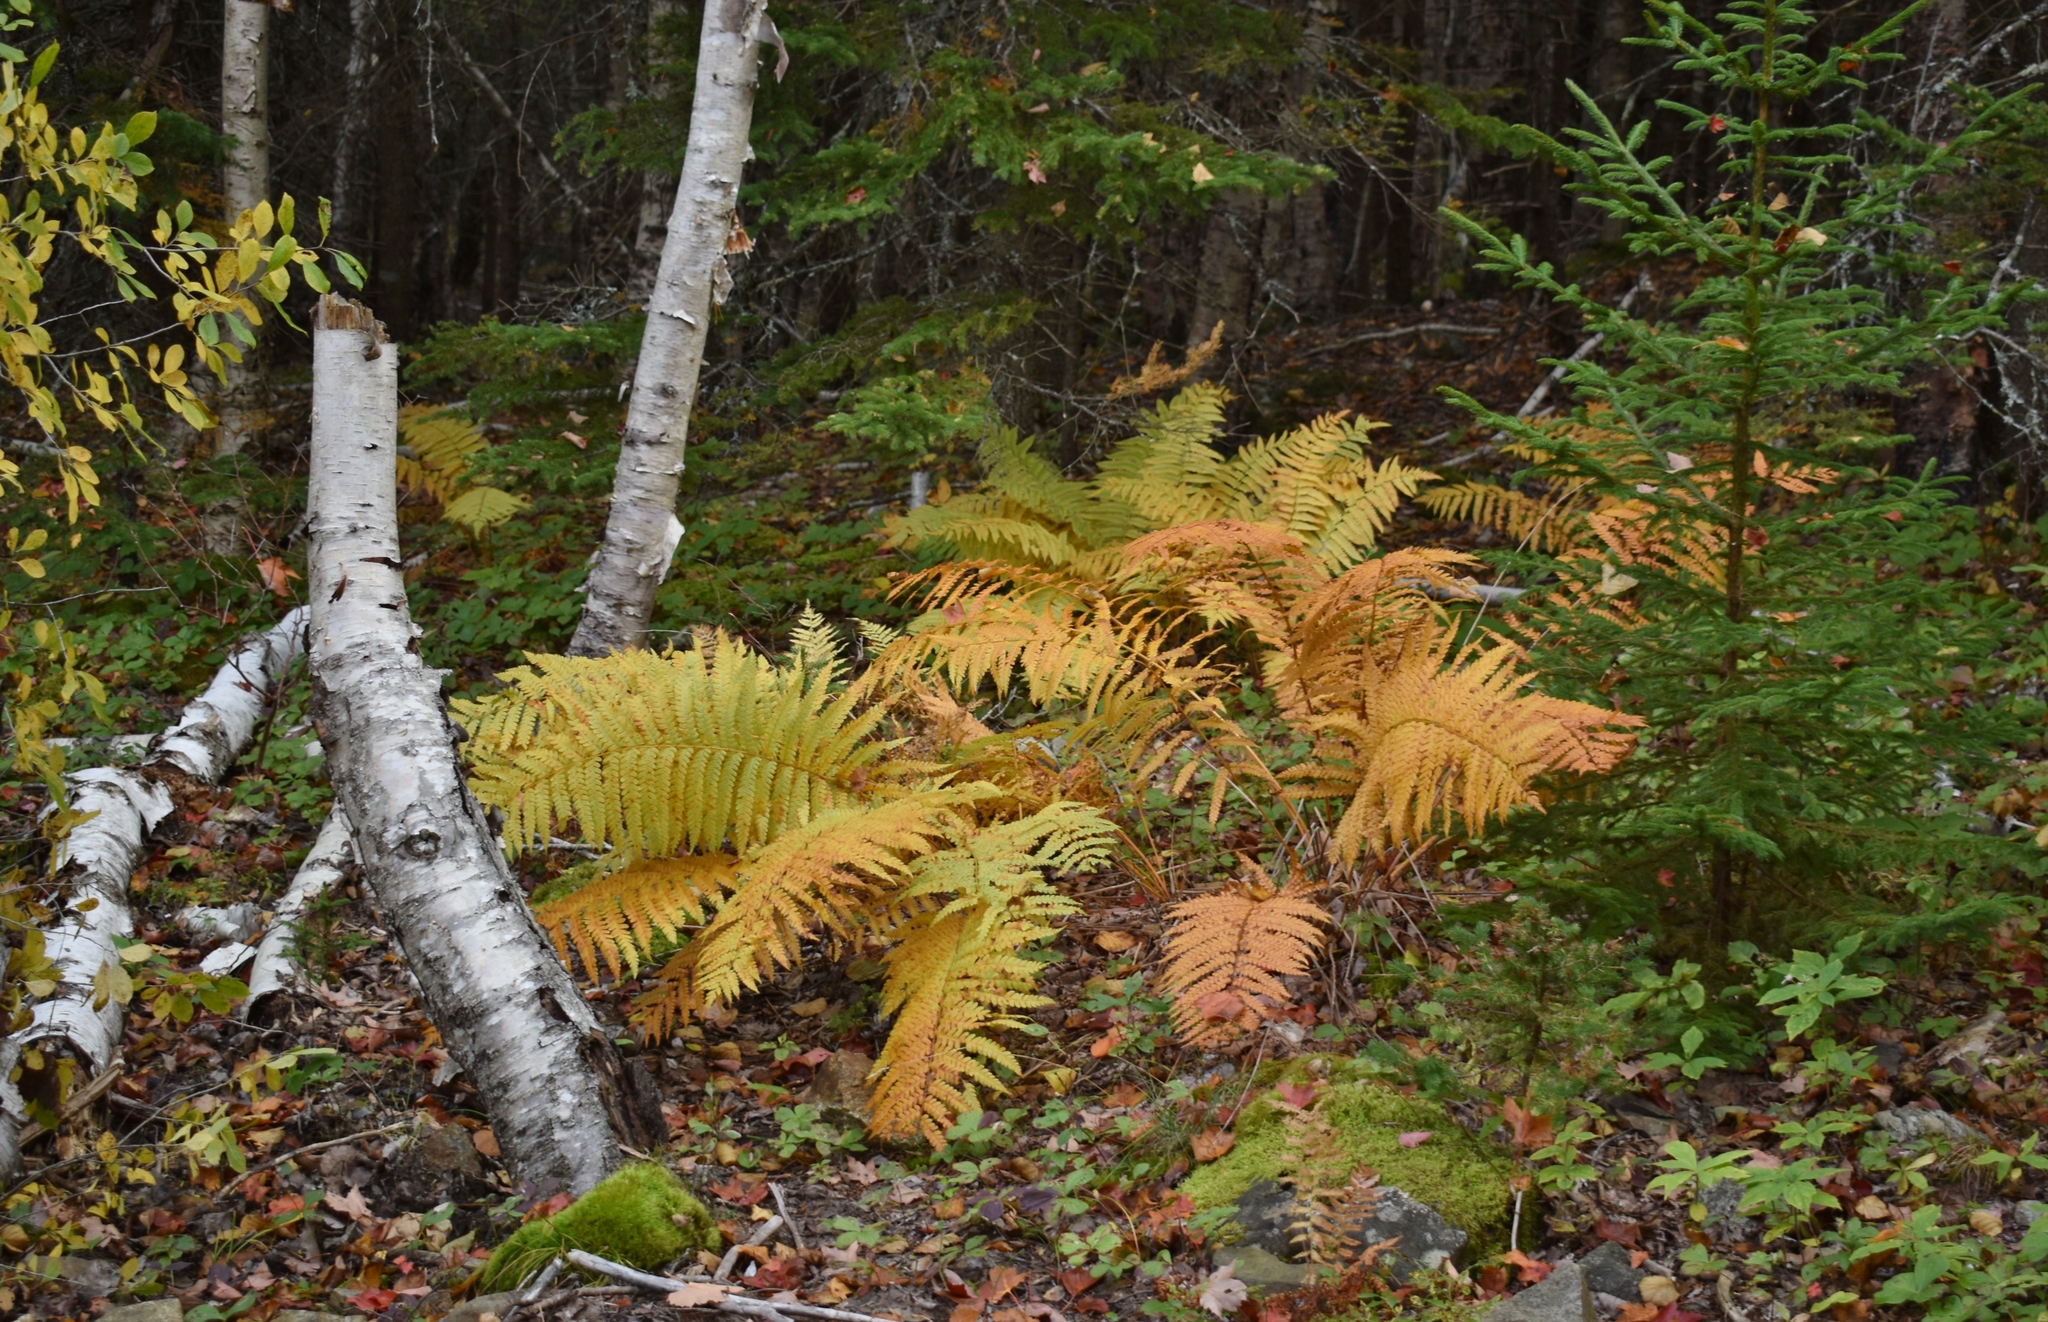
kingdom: Plantae
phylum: Tracheophyta
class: Polypodiopsida
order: Osmundales
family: Osmundaceae
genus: Osmundastrum
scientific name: Osmundastrum cinnamomeum
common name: Cinnamon fern
